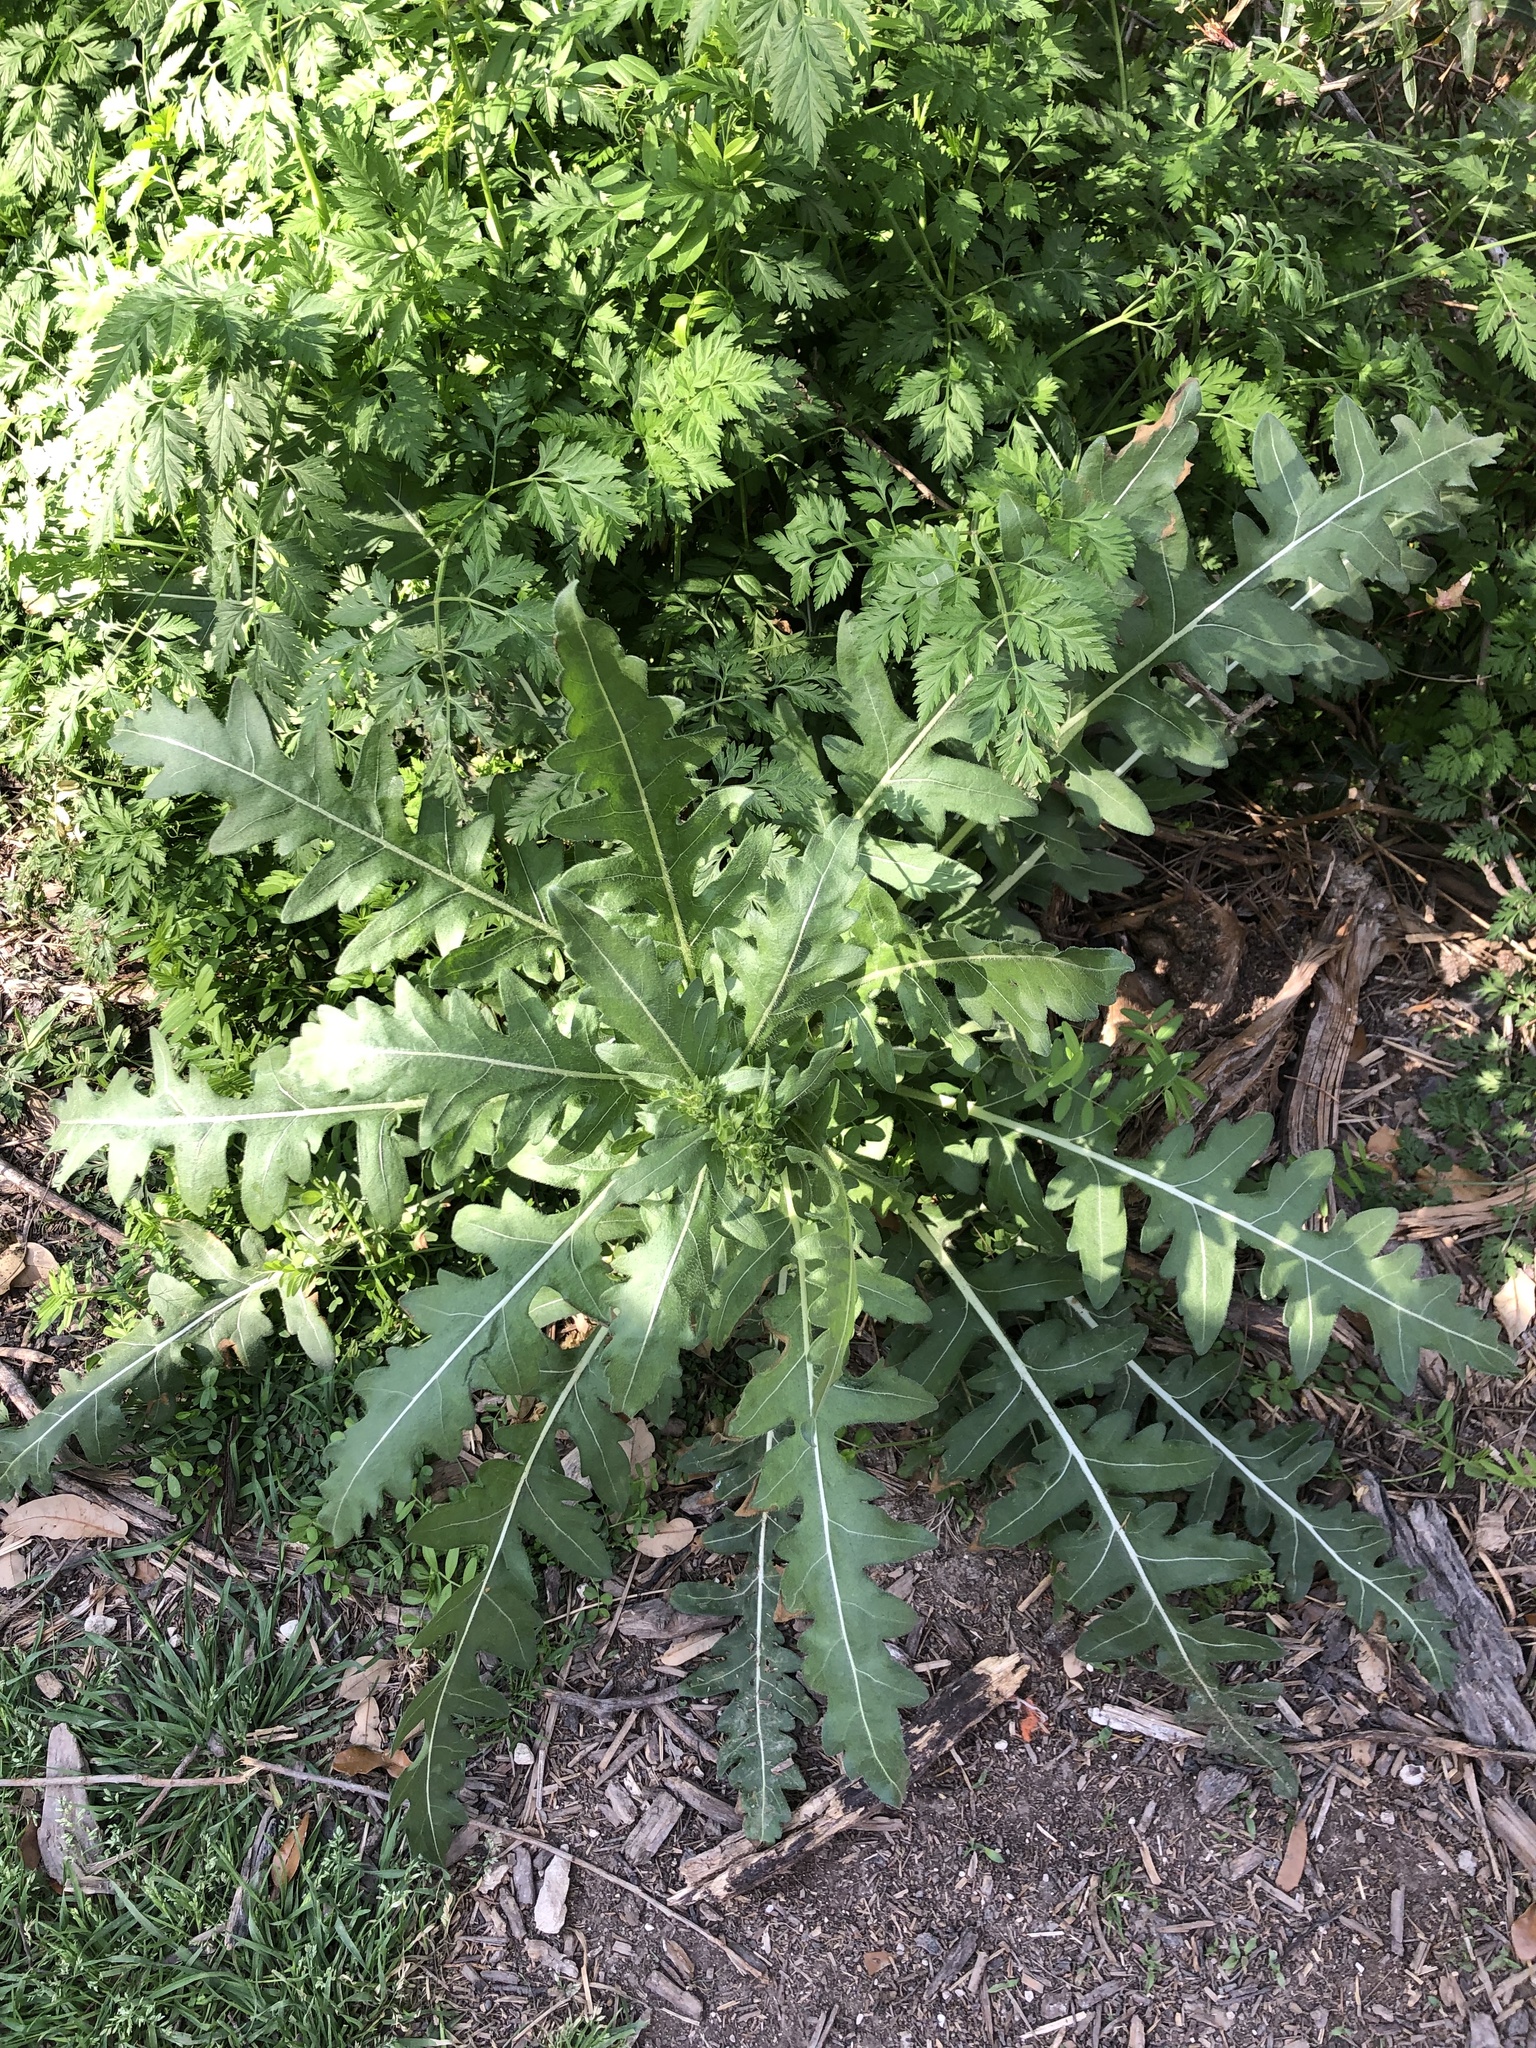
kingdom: Plantae
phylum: Tracheophyta
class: Magnoliopsida
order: Asterales
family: Asteraceae
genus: Engelmannia
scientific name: Engelmannia peristenia
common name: Engelmann's daisy
